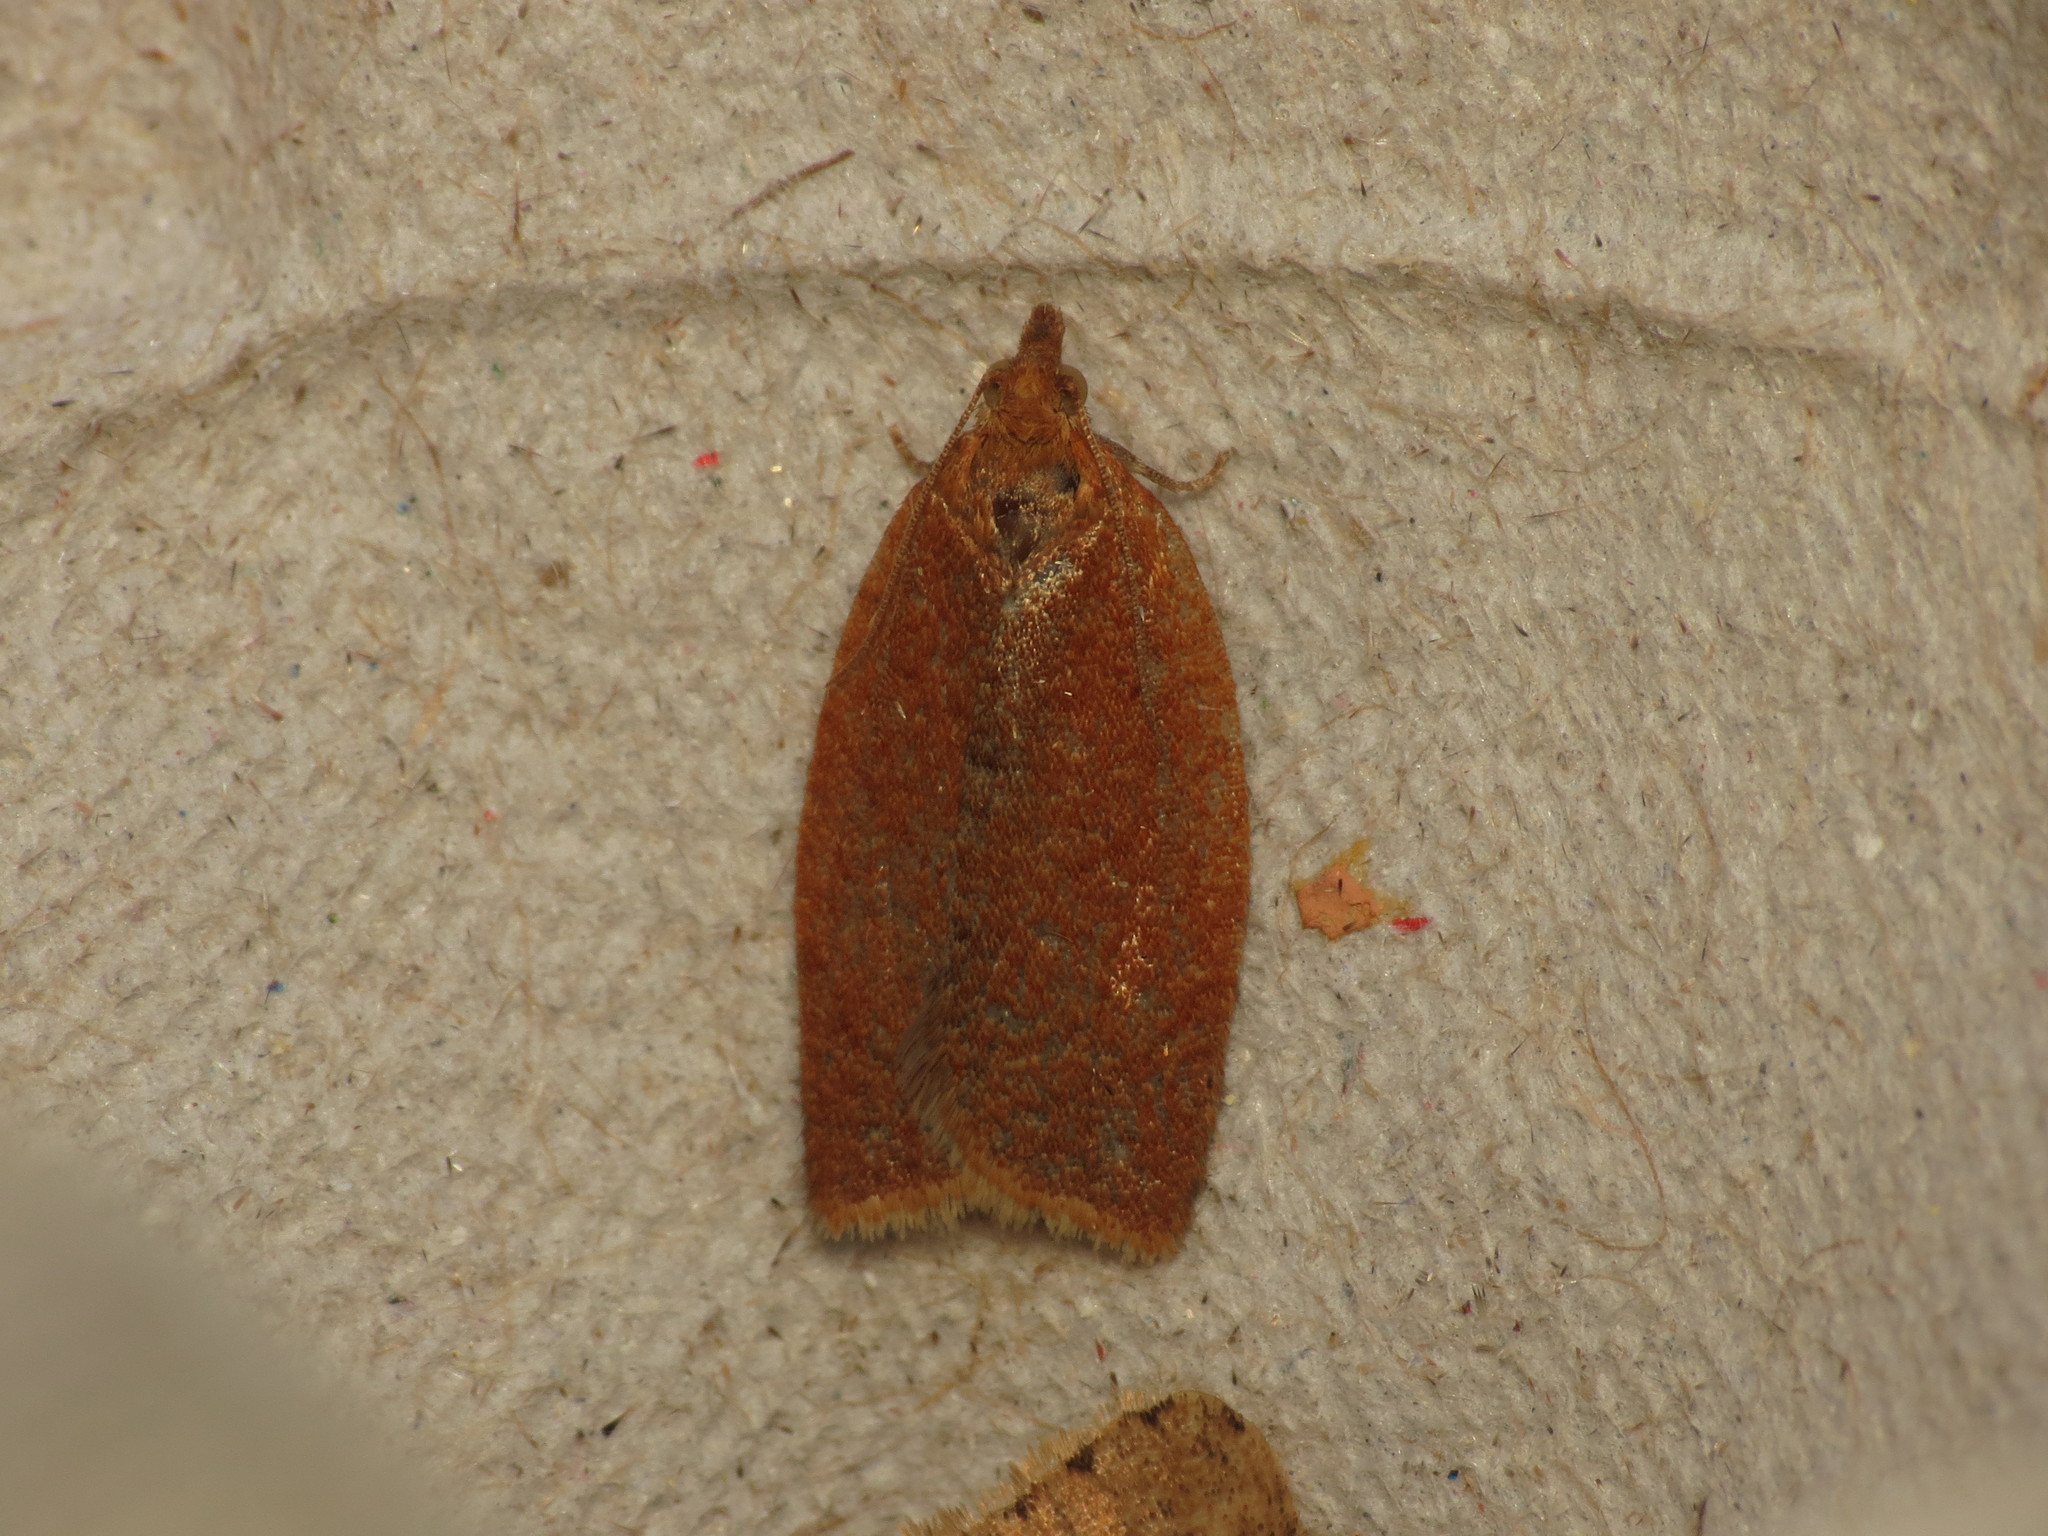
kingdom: Animalia
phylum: Arthropoda
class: Insecta
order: Lepidoptera
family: Tortricidae
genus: Clepsis
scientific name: Clepsis consimilana
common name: Privet tortrix
